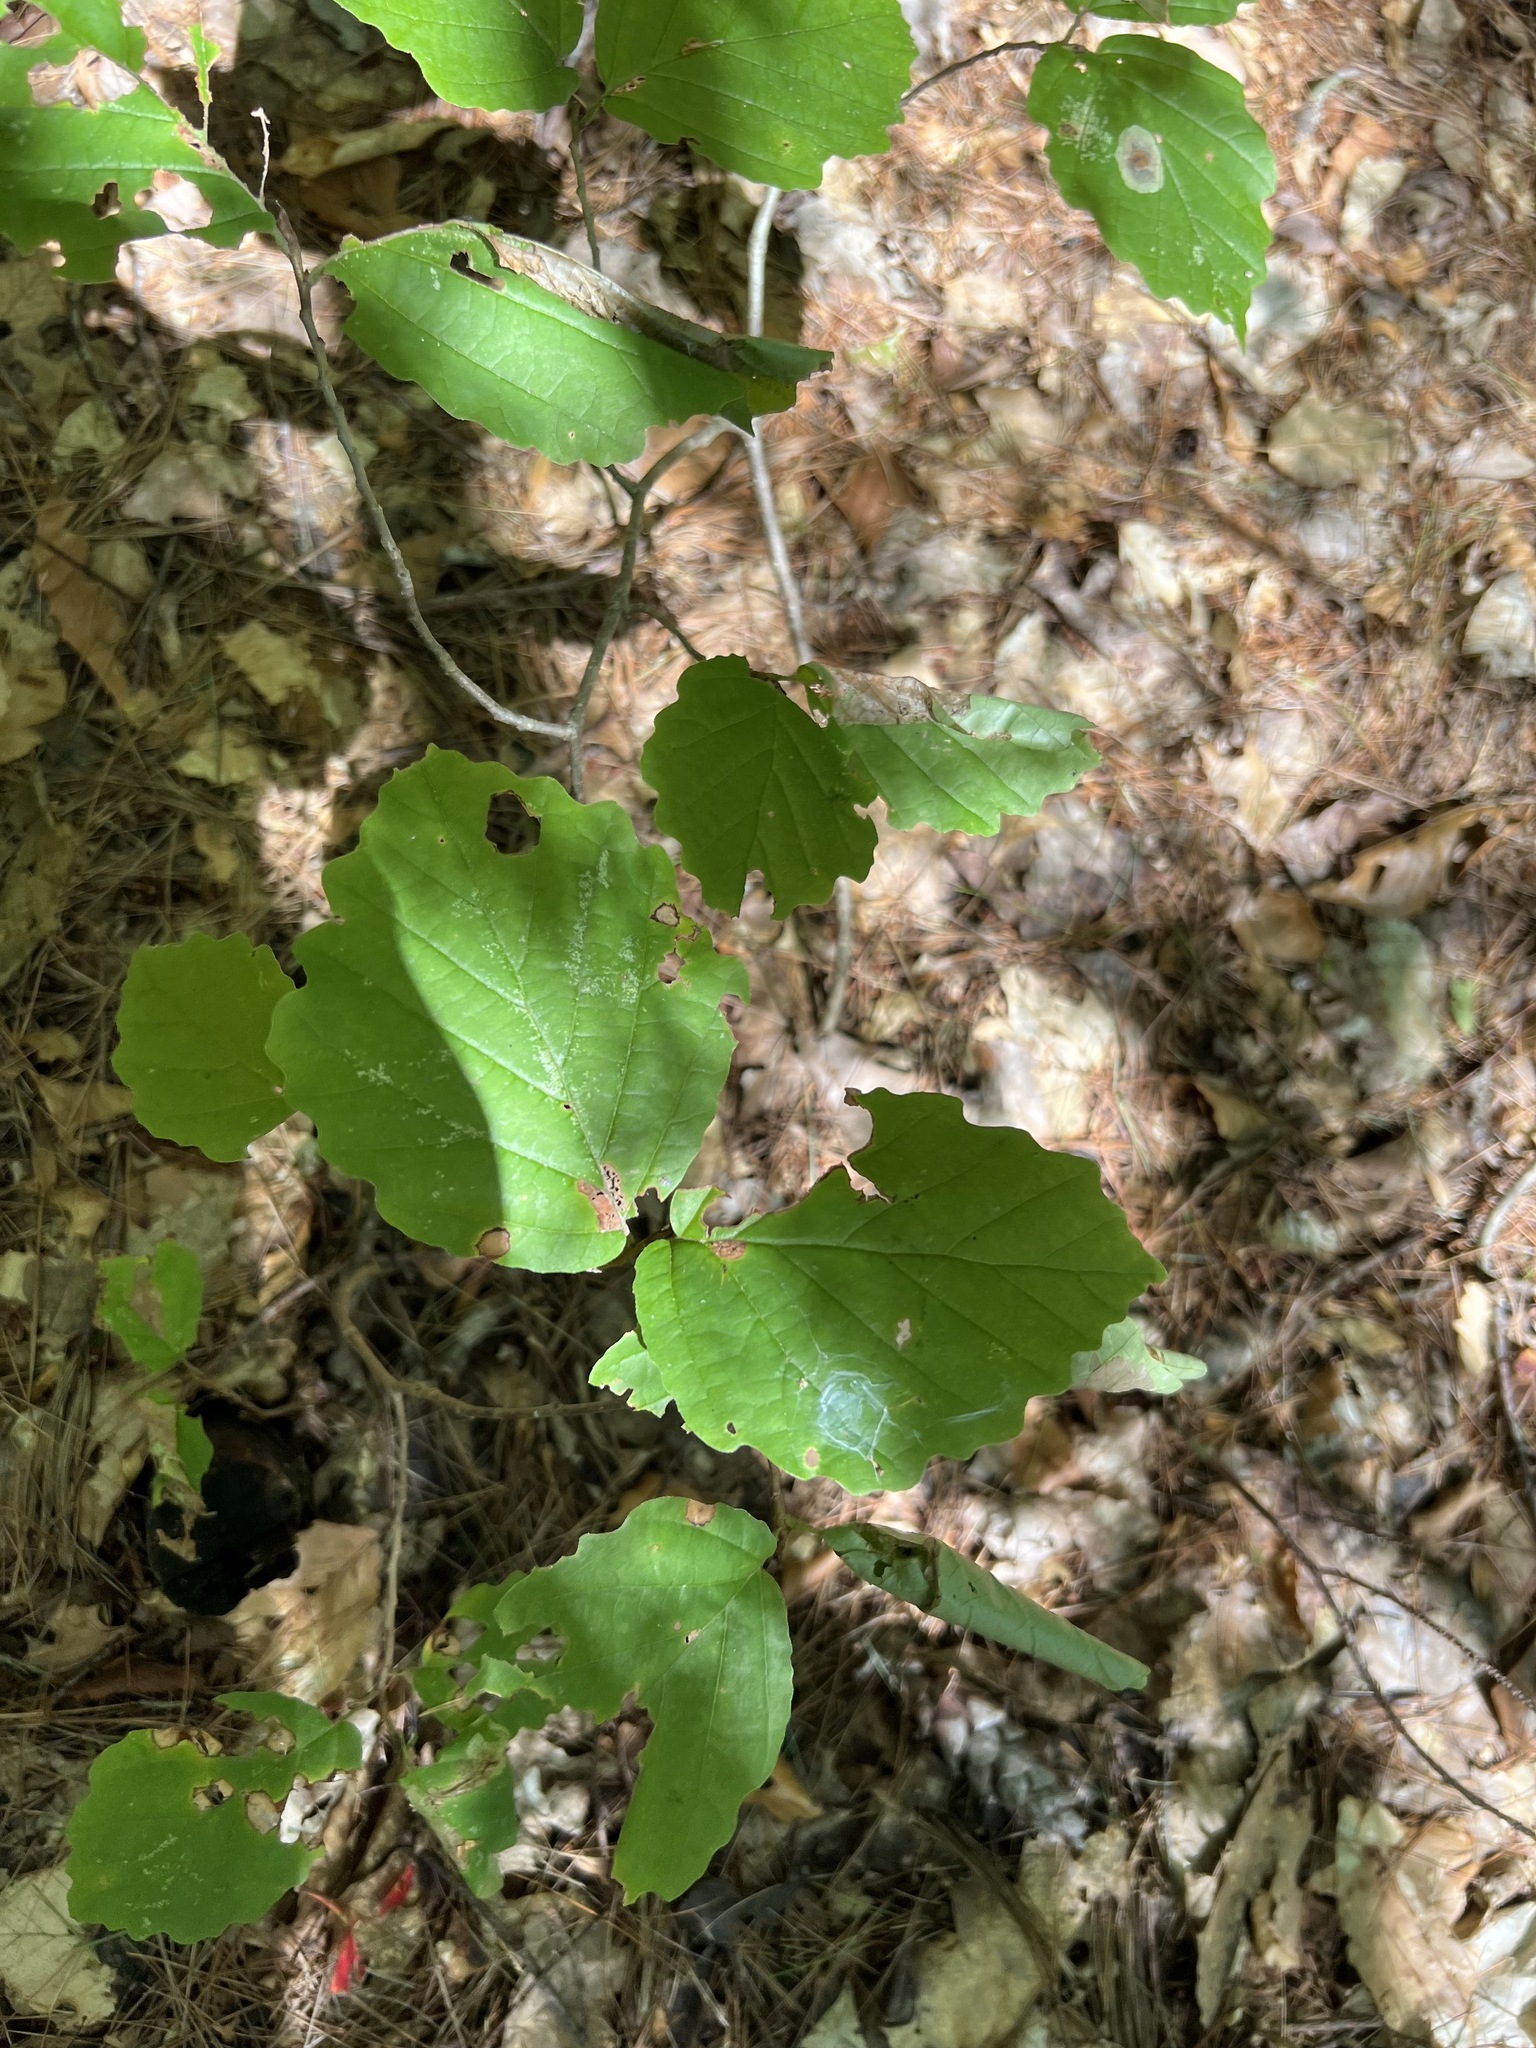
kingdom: Plantae
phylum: Tracheophyta
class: Magnoliopsida
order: Saxifragales
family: Hamamelidaceae
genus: Hamamelis
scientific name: Hamamelis virginiana
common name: Witch-hazel
